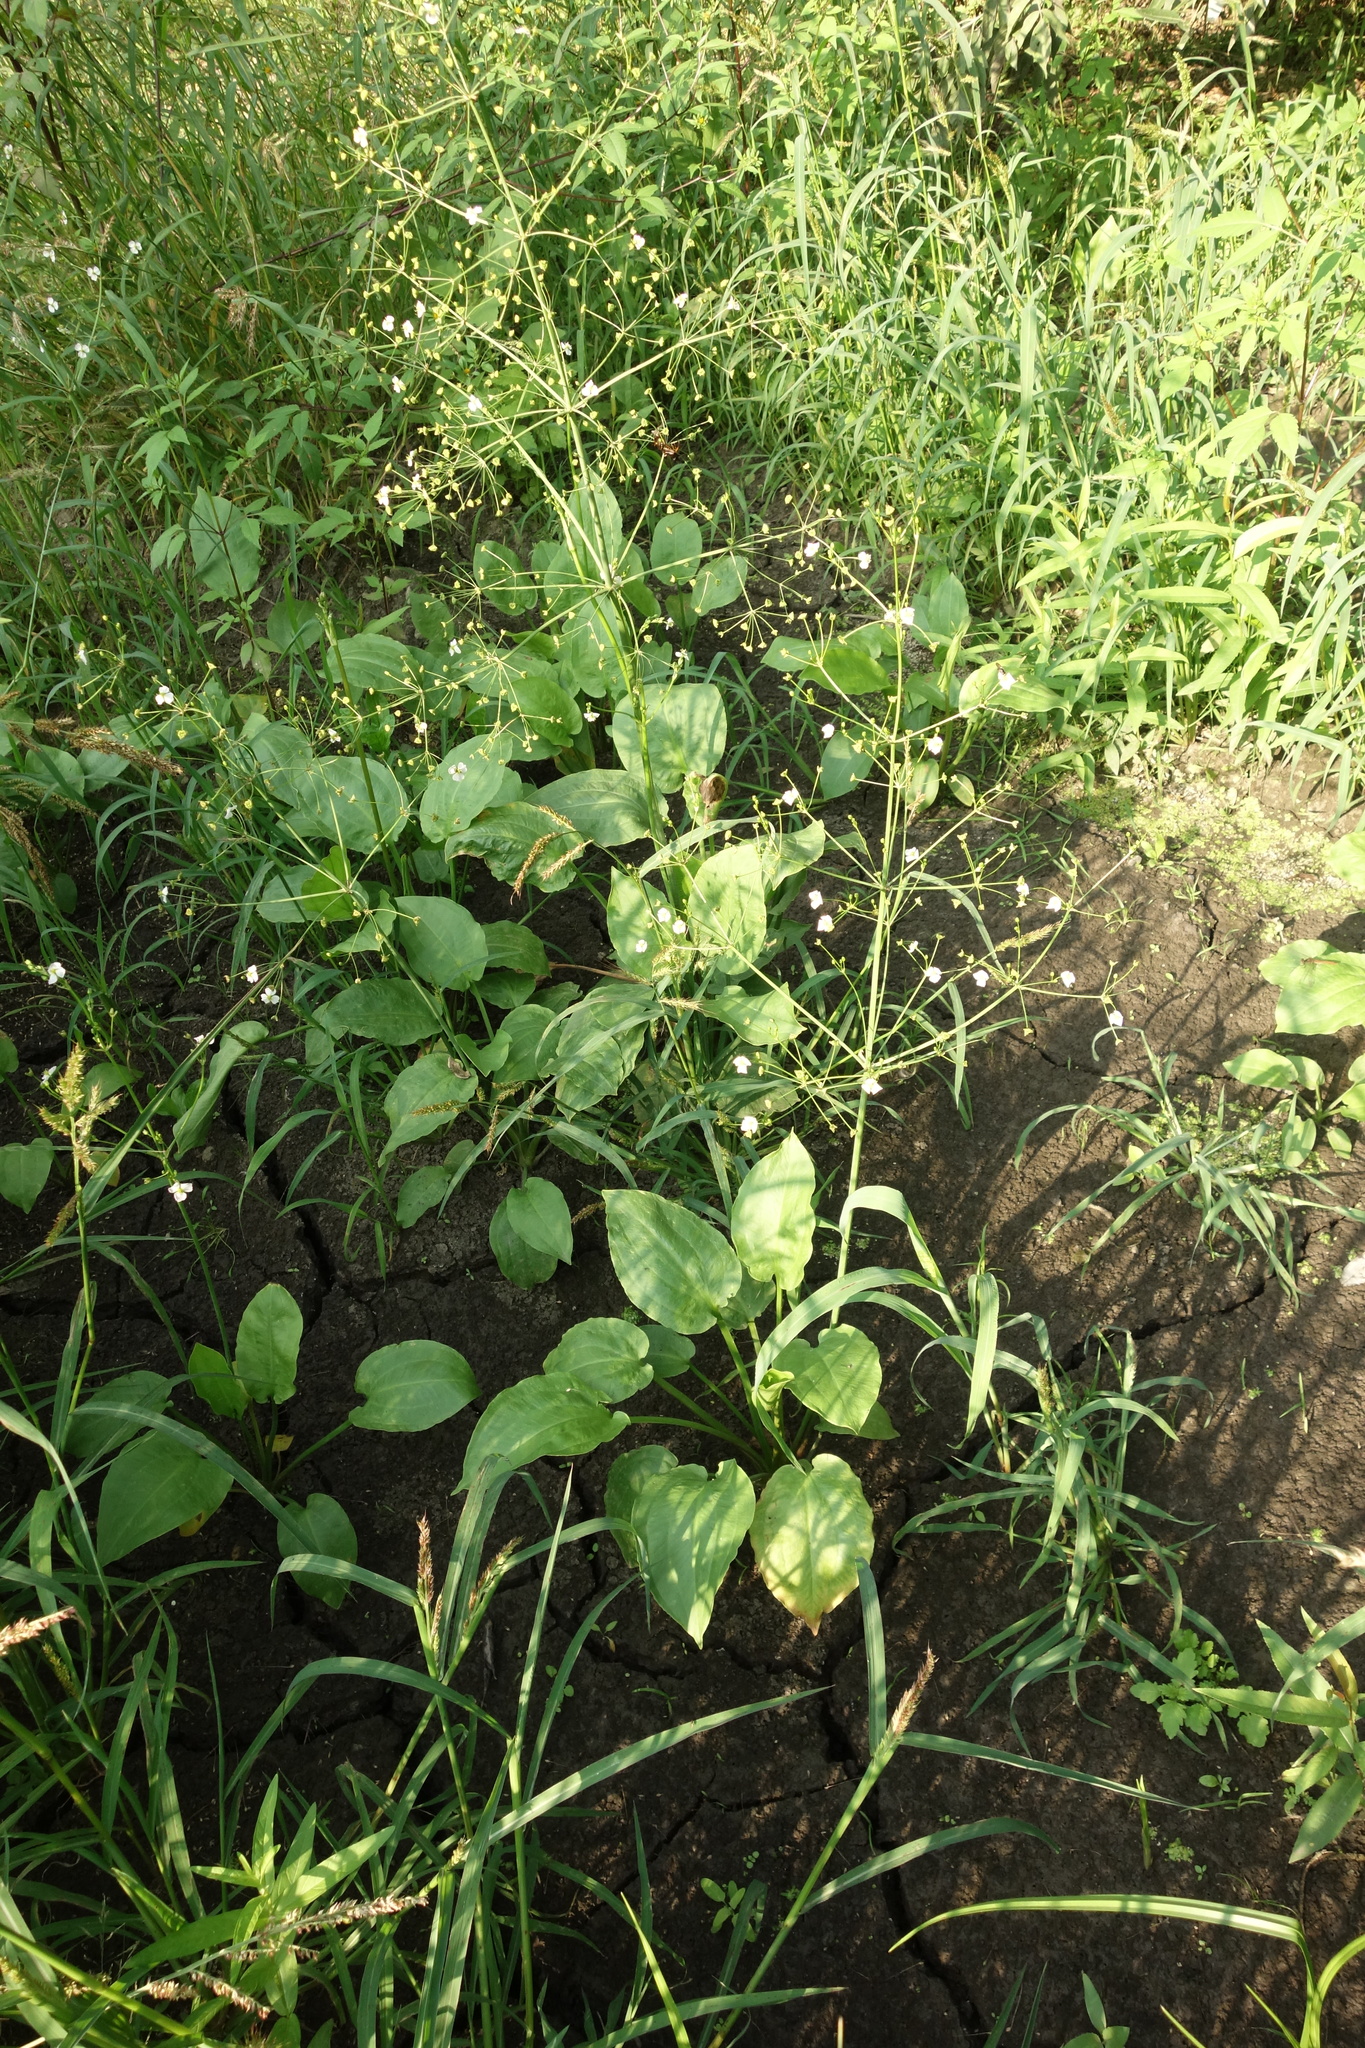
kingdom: Plantae
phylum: Tracheophyta
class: Liliopsida
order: Alismatales
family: Alismataceae
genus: Alisma
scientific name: Alisma plantago-aquatica
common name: Water-plantain
